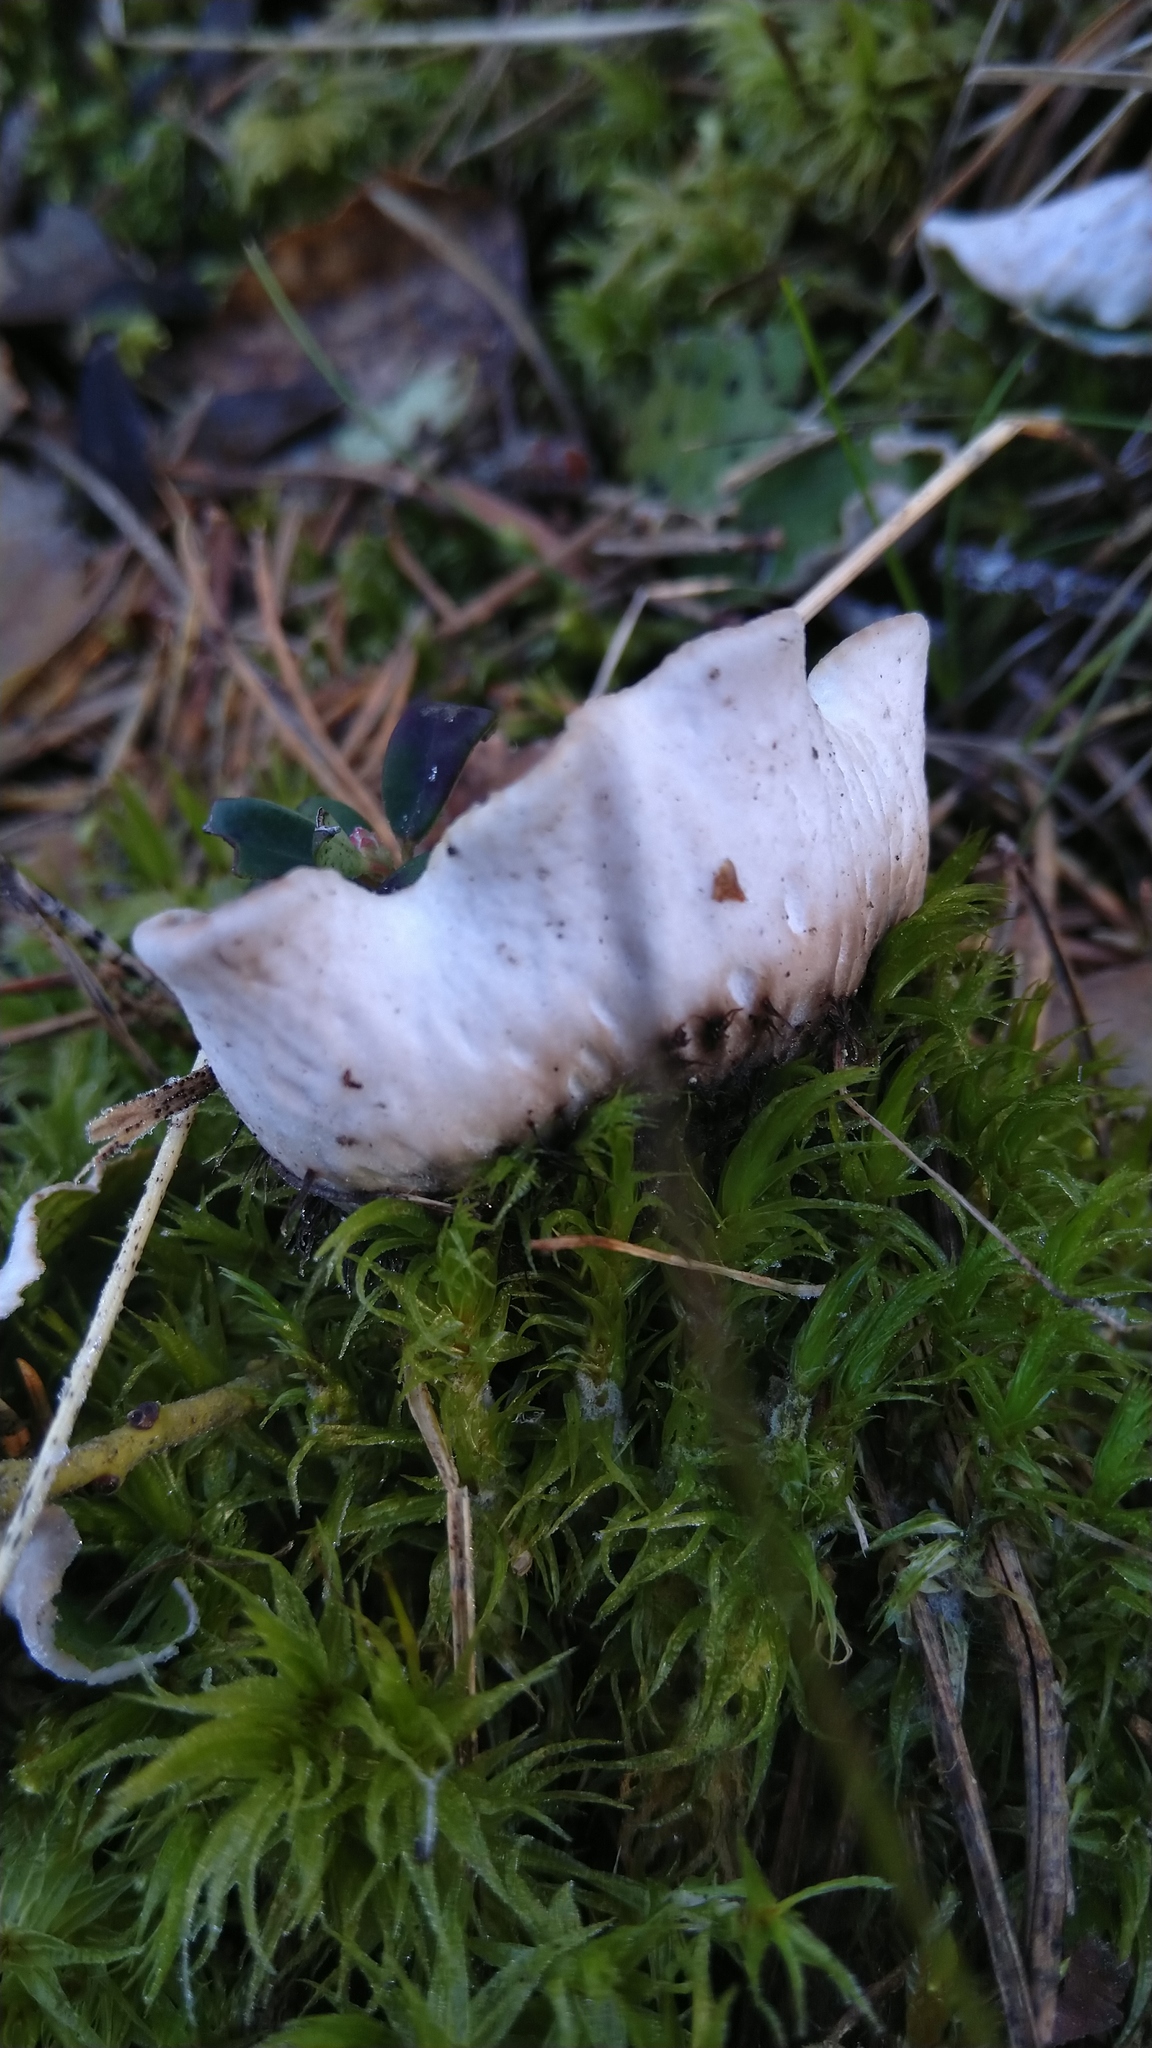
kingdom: Fungi
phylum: Ascomycota
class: Lecanoromycetes
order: Peltigerales
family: Peltigeraceae
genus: Peltigera
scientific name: Peltigera aphthosa
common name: Common freckle pelt lichen
